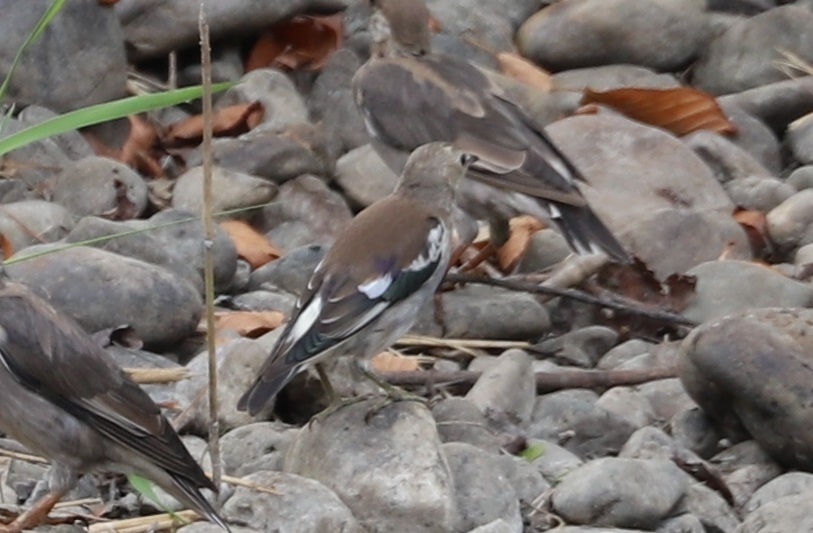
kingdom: Animalia
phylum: Chordata
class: Aves
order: Passeriformes
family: Sturnidae
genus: Agropsar
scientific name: Agropsar philippensis
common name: Chestnut-cheeked starling
